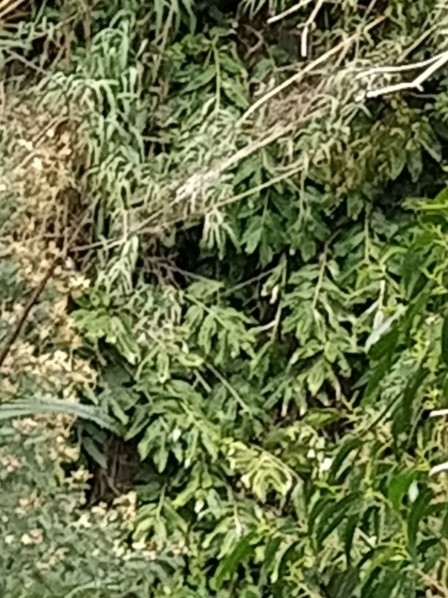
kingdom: Plantae
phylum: Tracheophyta
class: Liliopsida
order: Zingiberales
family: Zingiberaceae
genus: Hedychium
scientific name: Hedychium gardnerianum
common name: Himalayan ginger
